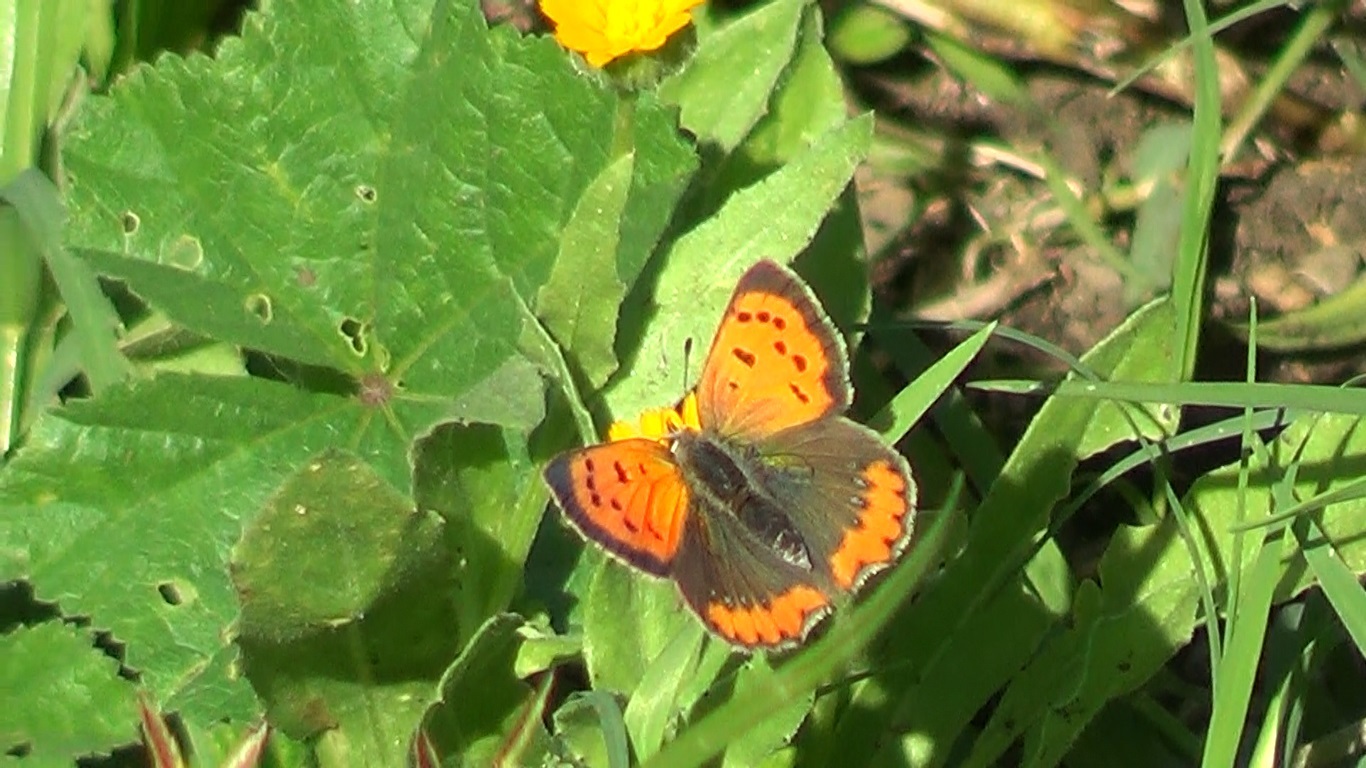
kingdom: Animalia
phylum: Arthropoda
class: Insecta
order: Lepidoptera
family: Lycaenidae
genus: Lycaena
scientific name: Lycaena phlaeas
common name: Small copper
